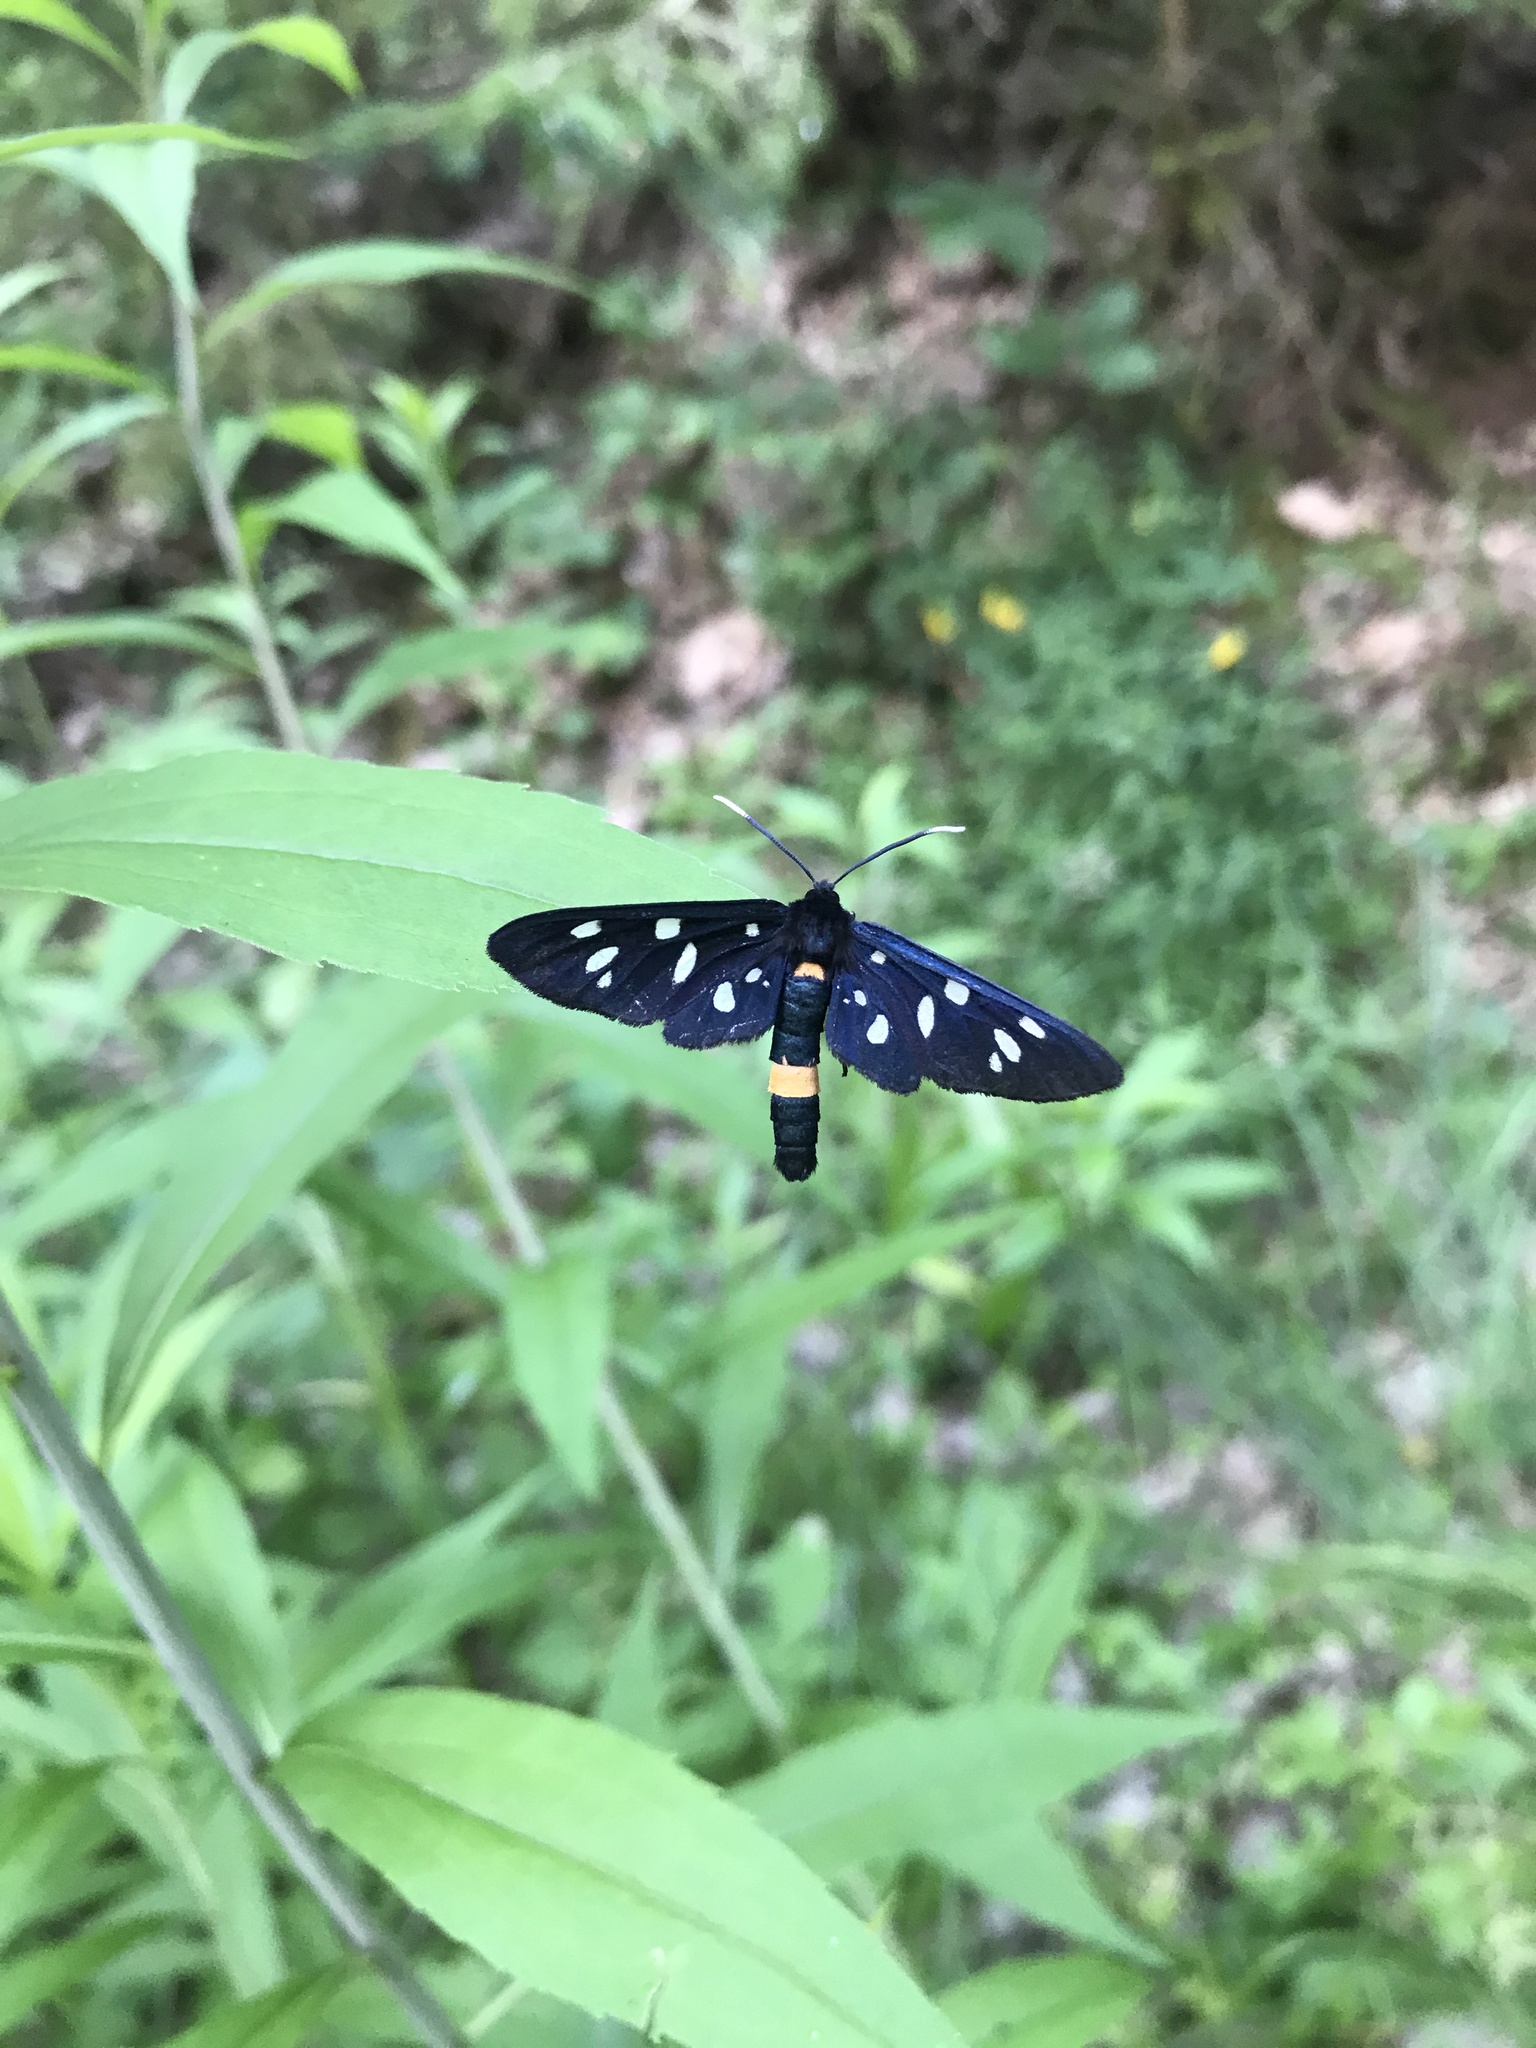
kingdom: Animalia
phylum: Arthropoda
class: Insecta
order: Lepidoptera
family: Erebidae
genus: Amata
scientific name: Amata phegea
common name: Nine-spotted
